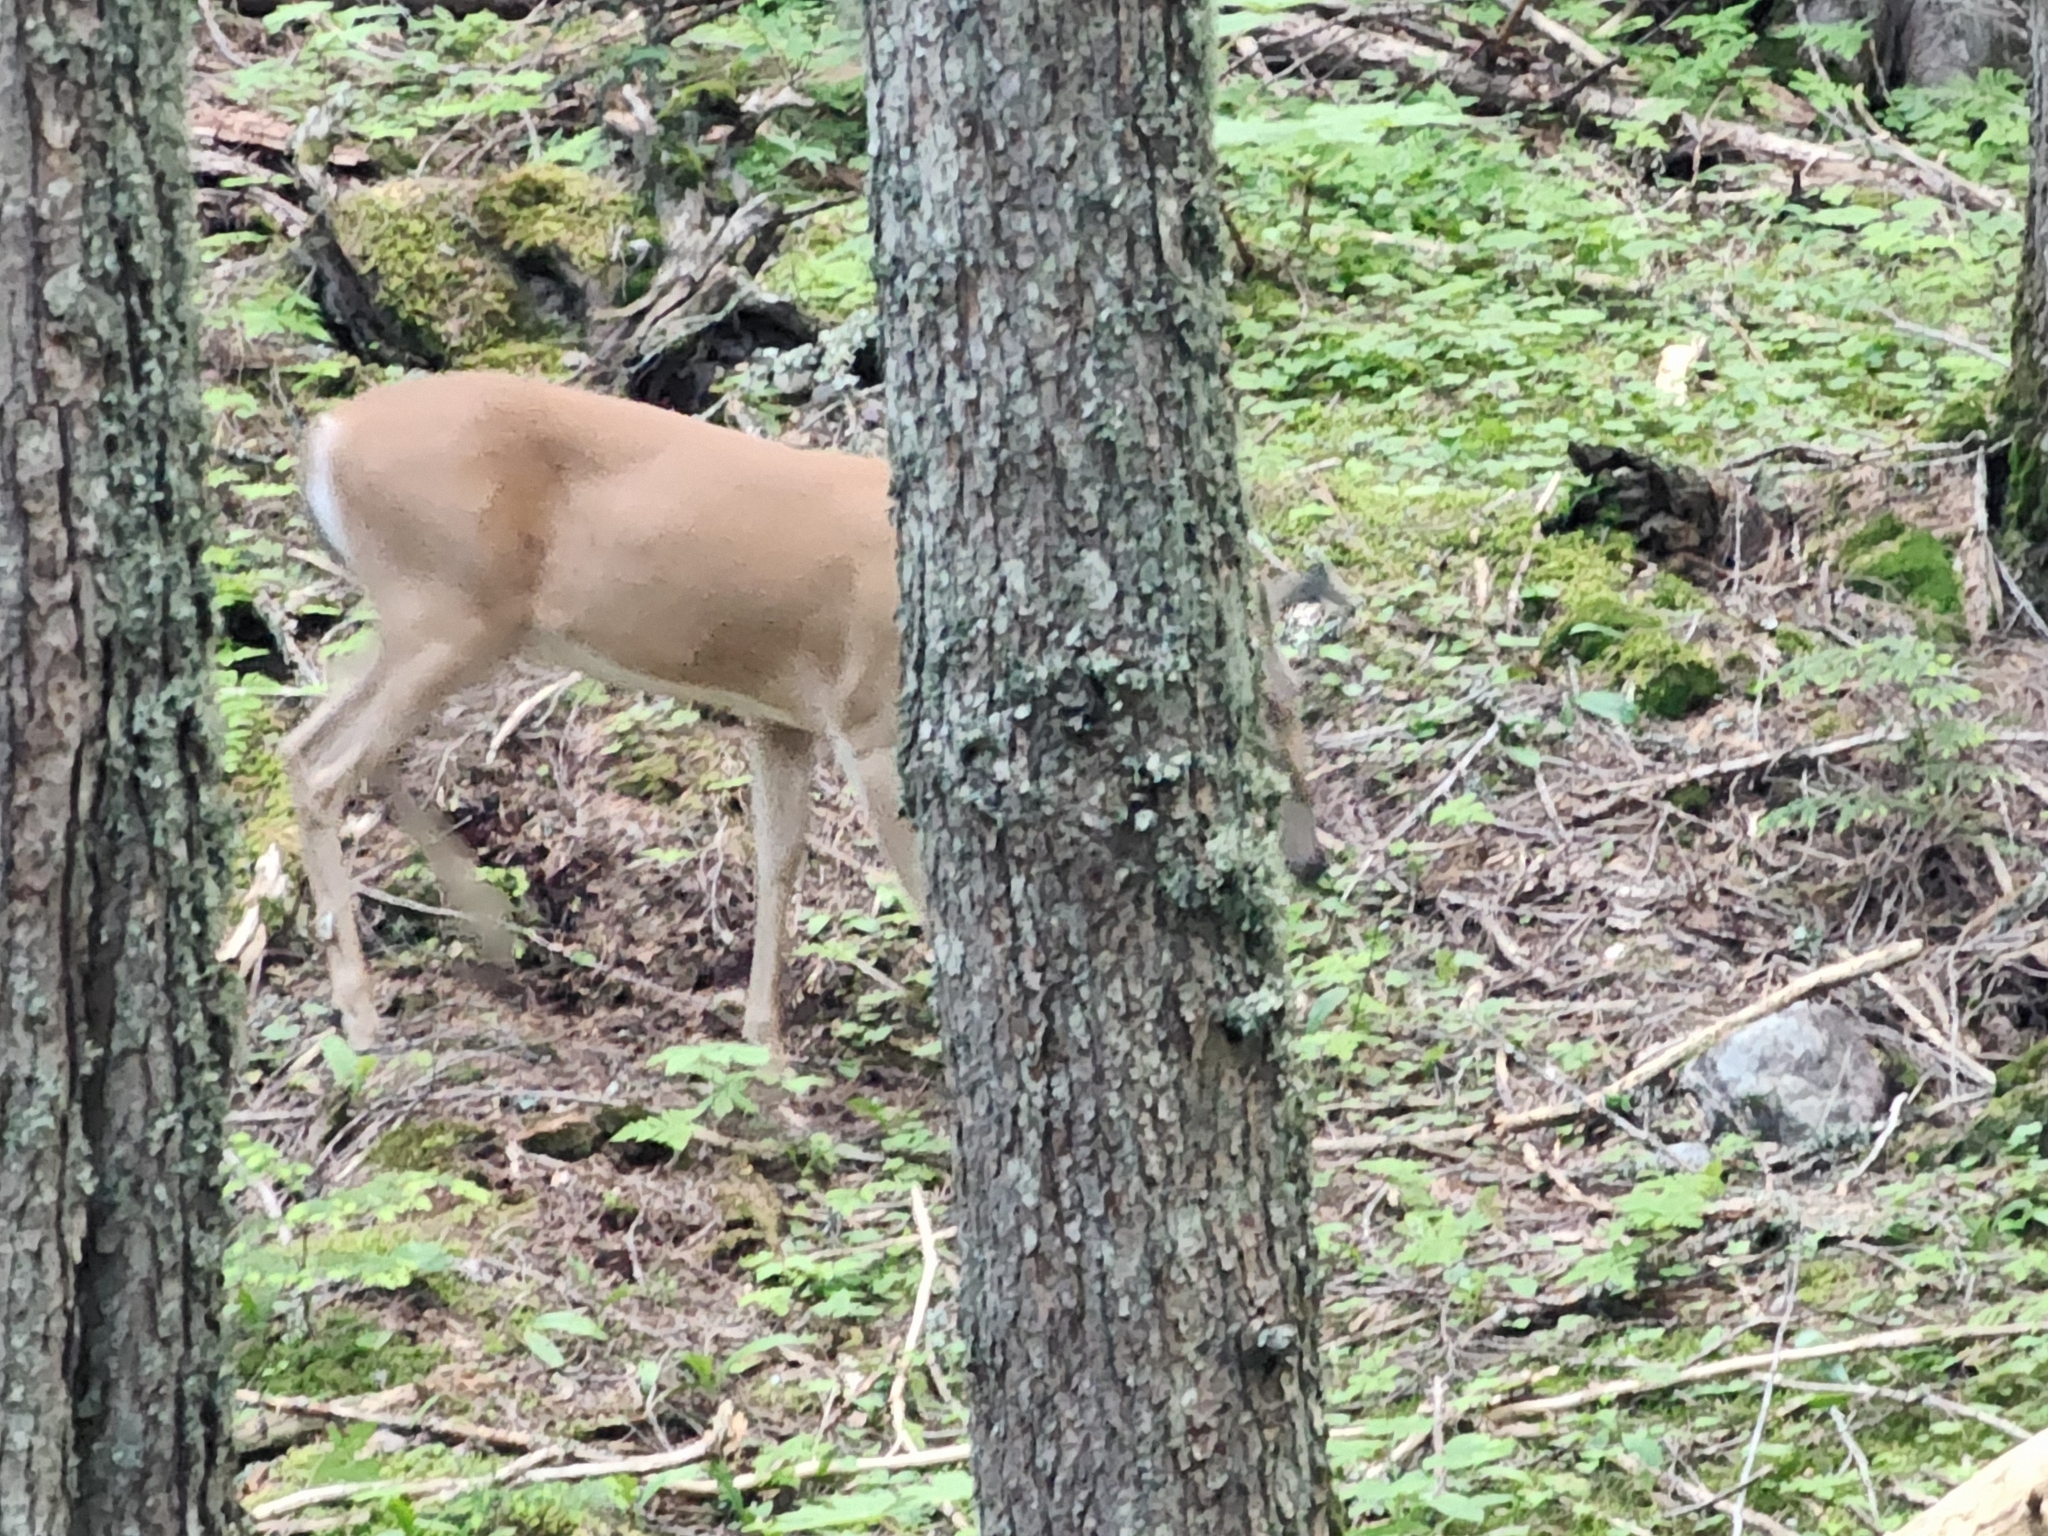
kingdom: Animalia
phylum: Chordata
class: Mammalia
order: Artiodactyla
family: Cervidae
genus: Odocoileus
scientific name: Odocoileus virginianus
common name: White-tailed deer
